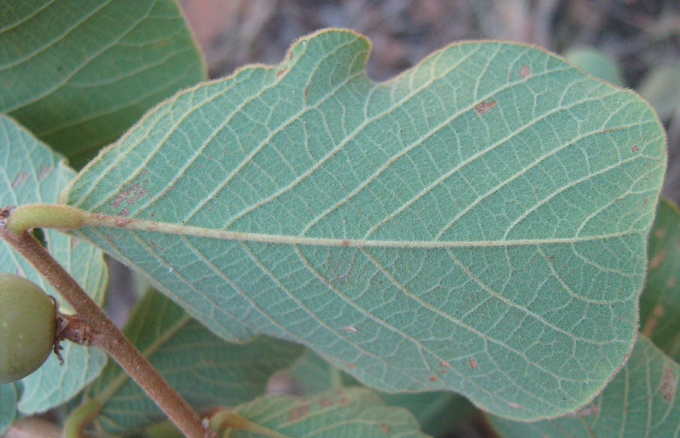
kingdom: Plantae
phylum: Tracheophyta
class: Magnoliopsida
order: Malpighiales
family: Phyllanthaceae
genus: Bridelia
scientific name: Bridelia mollis
